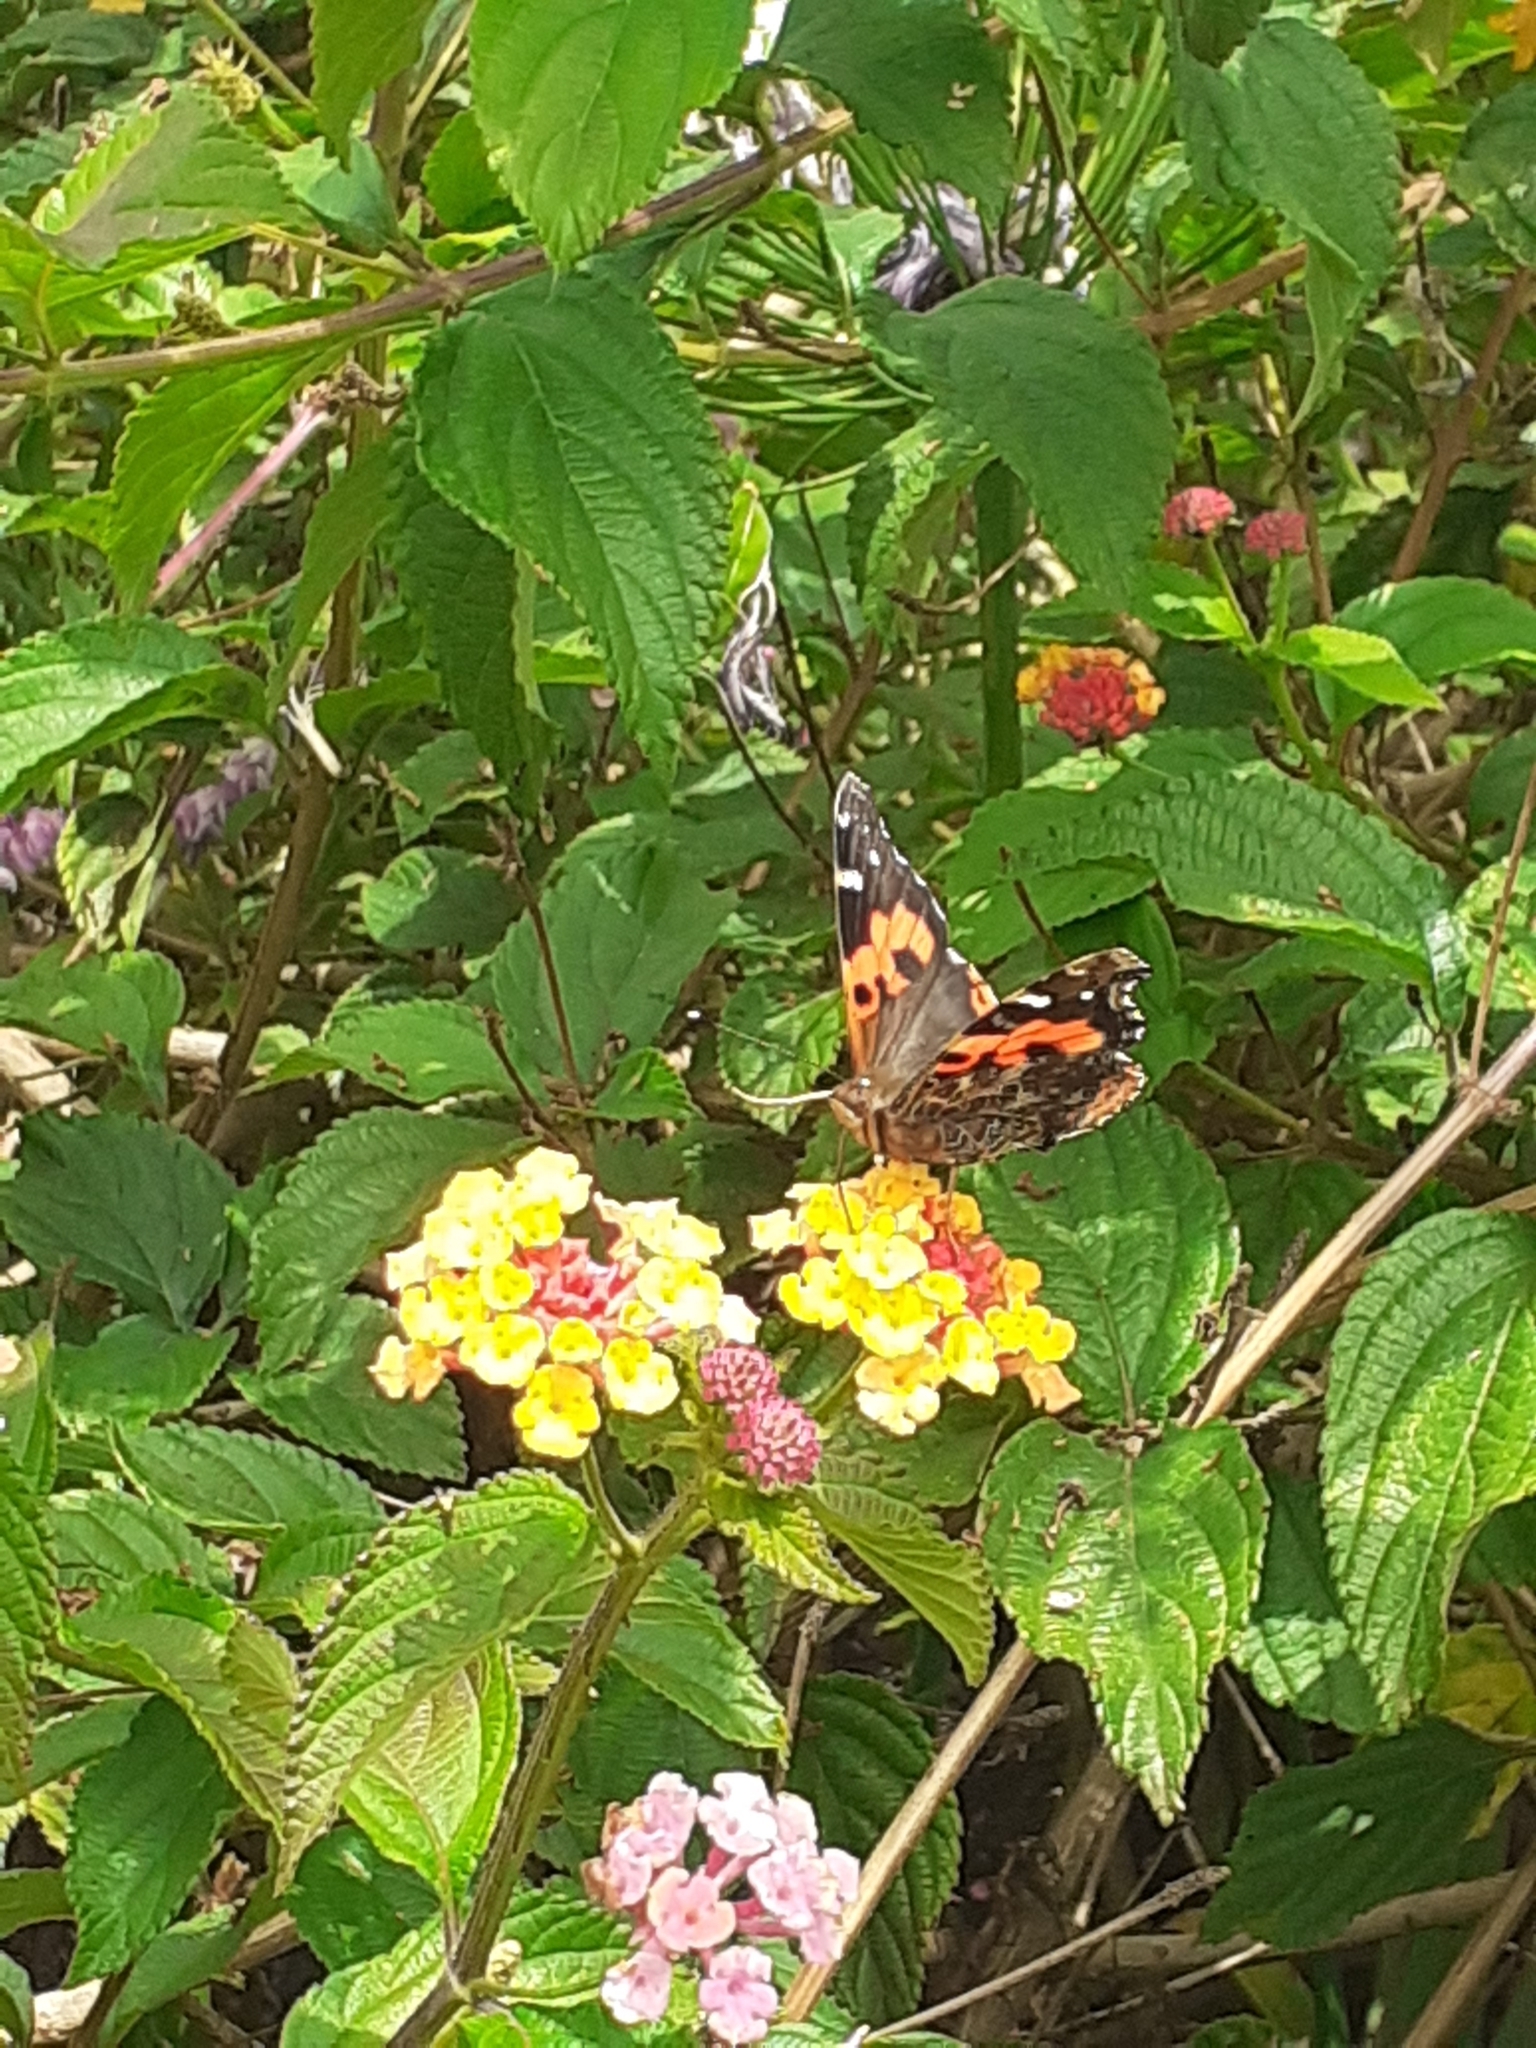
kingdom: Animalia
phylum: Arthropoda
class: Insecta
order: Lepidoptera
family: Nymphalidae
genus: Vanessa
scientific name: Vanessa vulcania
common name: Canary red admiral
